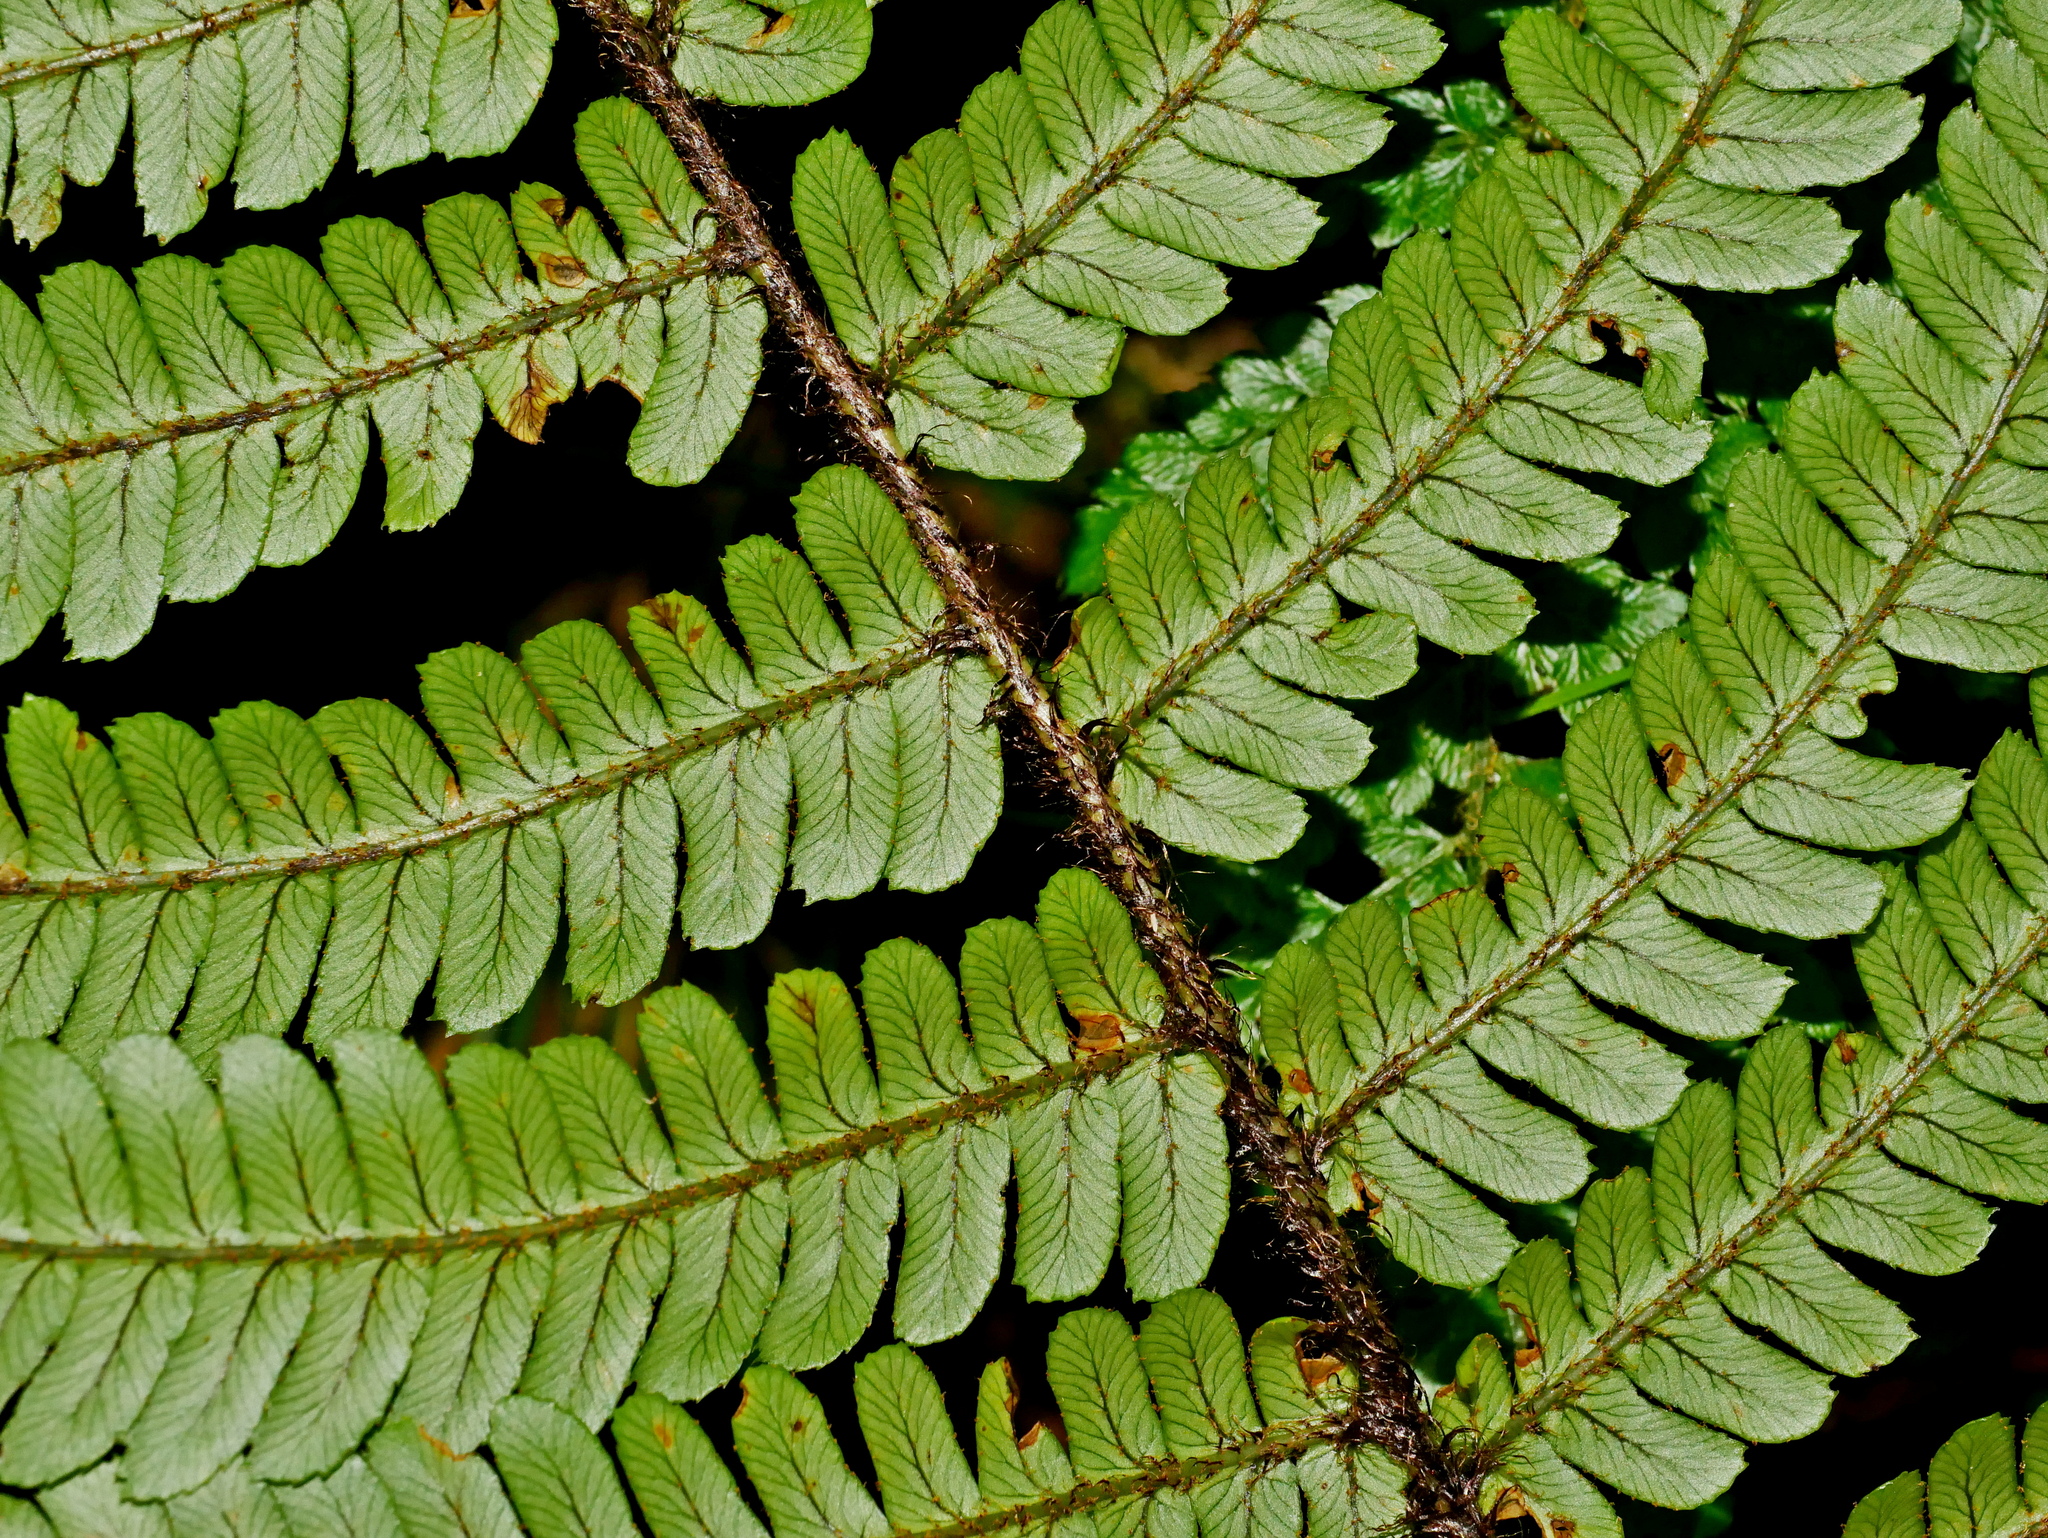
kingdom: Plantae
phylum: Tracheophyta
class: Polypodiopsida
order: Polypodiales
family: Dryopteridaceae
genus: Dryopteris
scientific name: Dryopteris lepidopoda
